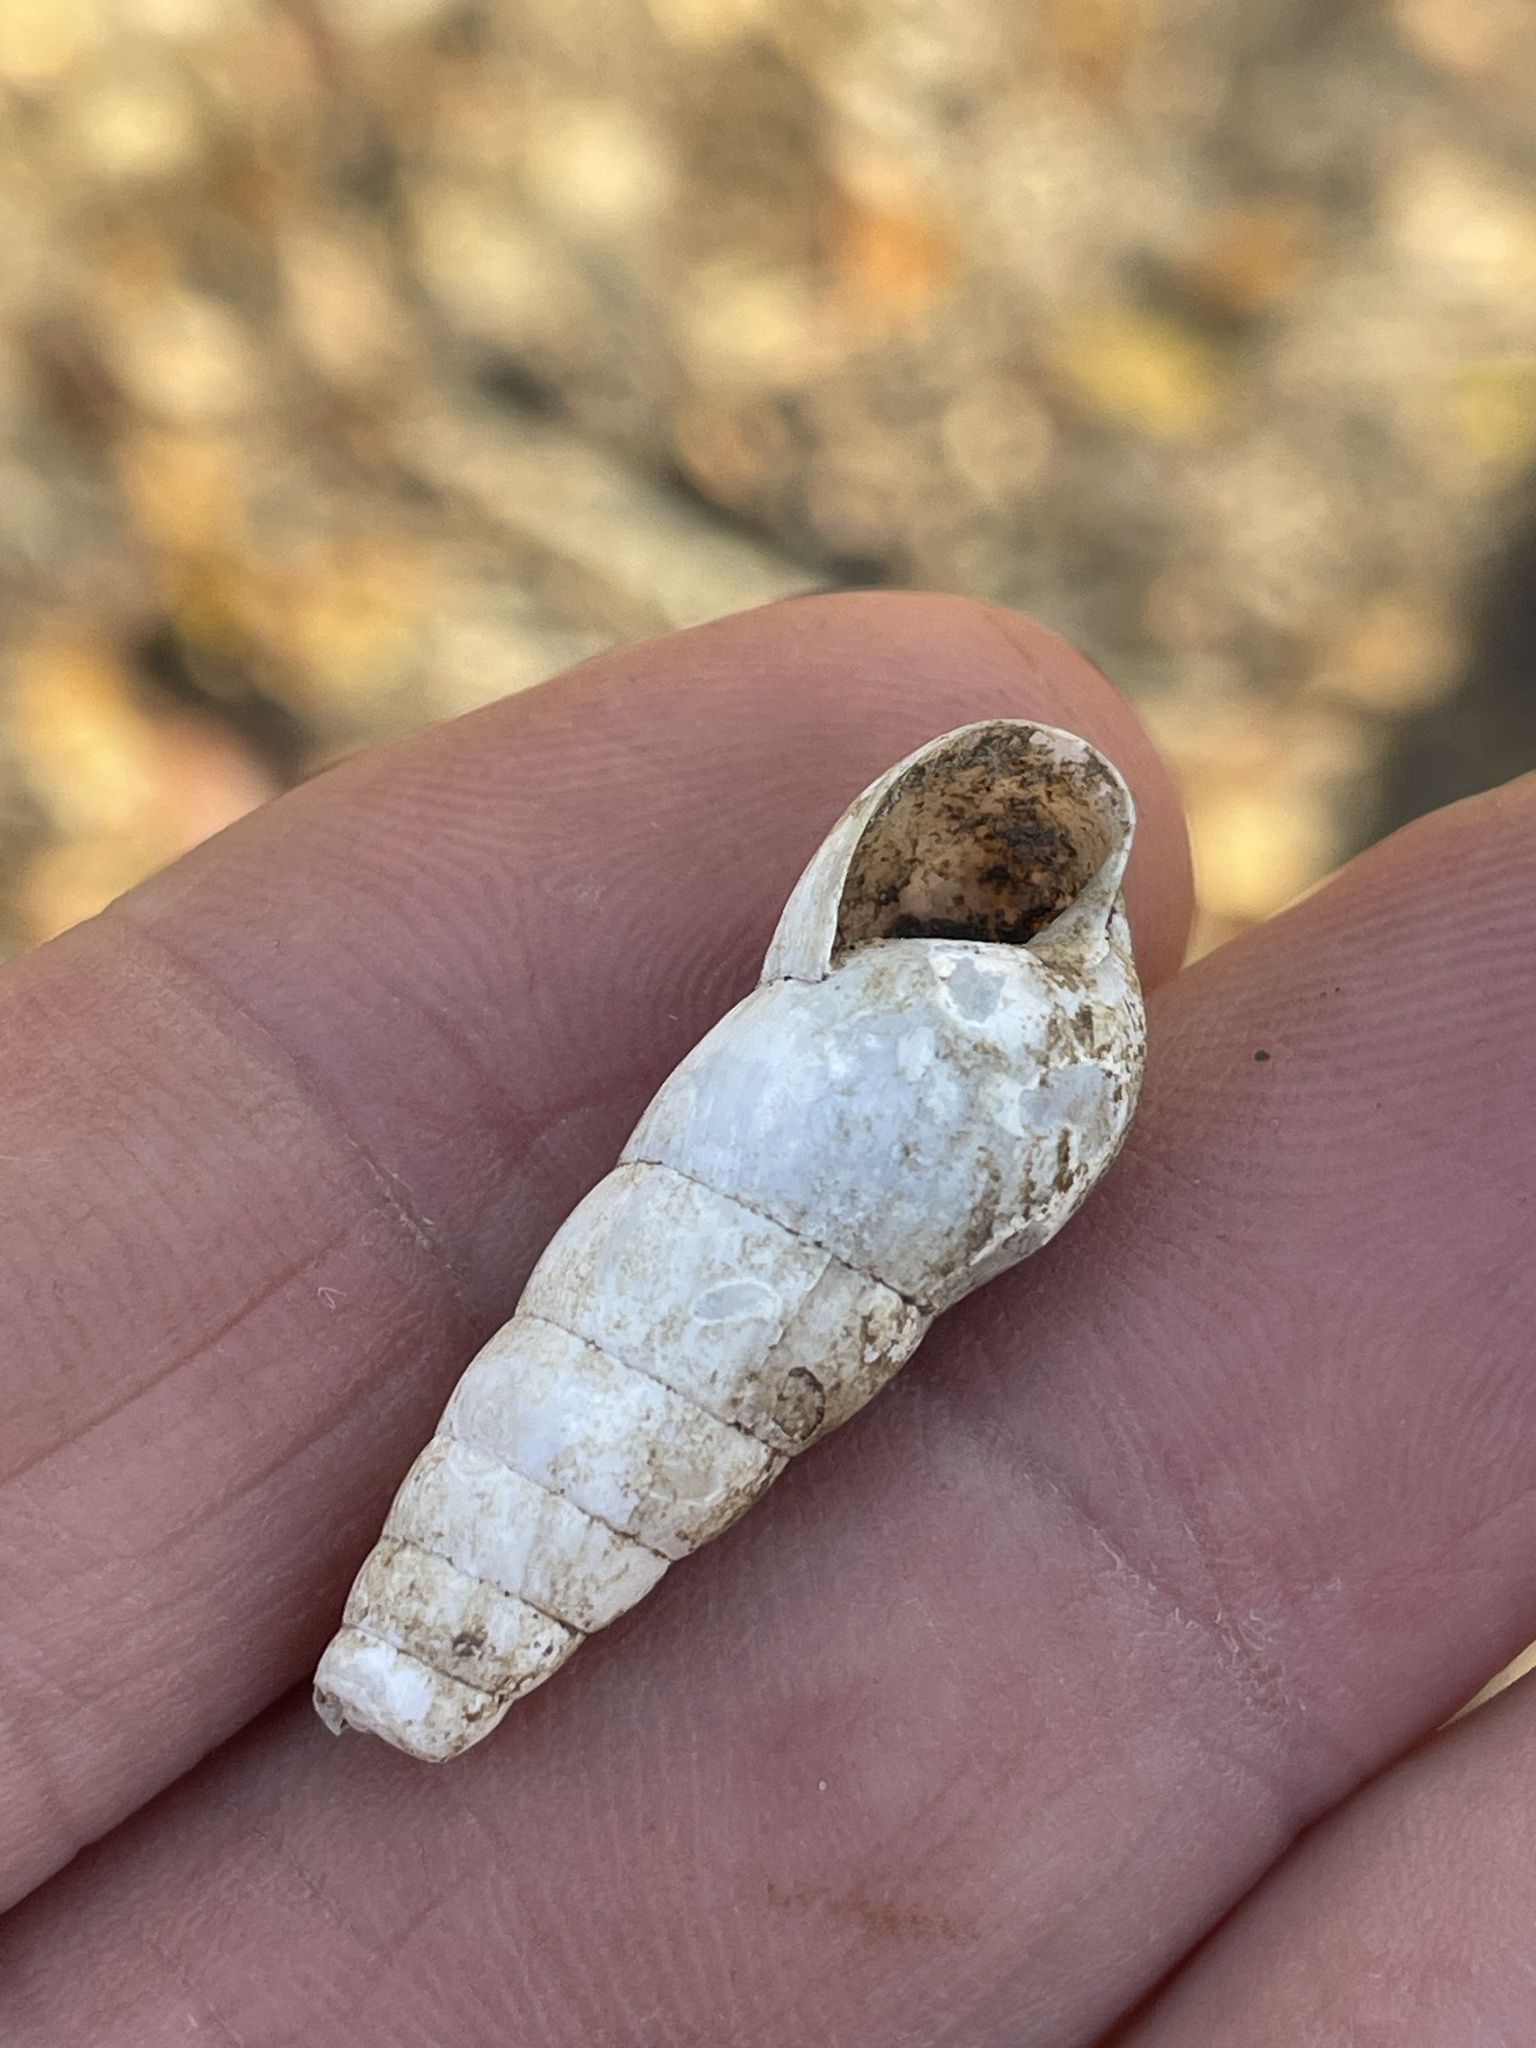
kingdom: Animalia
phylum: Mollusca
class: Gastropoda
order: Stylommatophora
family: Achatinidae
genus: Rumina
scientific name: Rumina decollata
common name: Decollate snail
